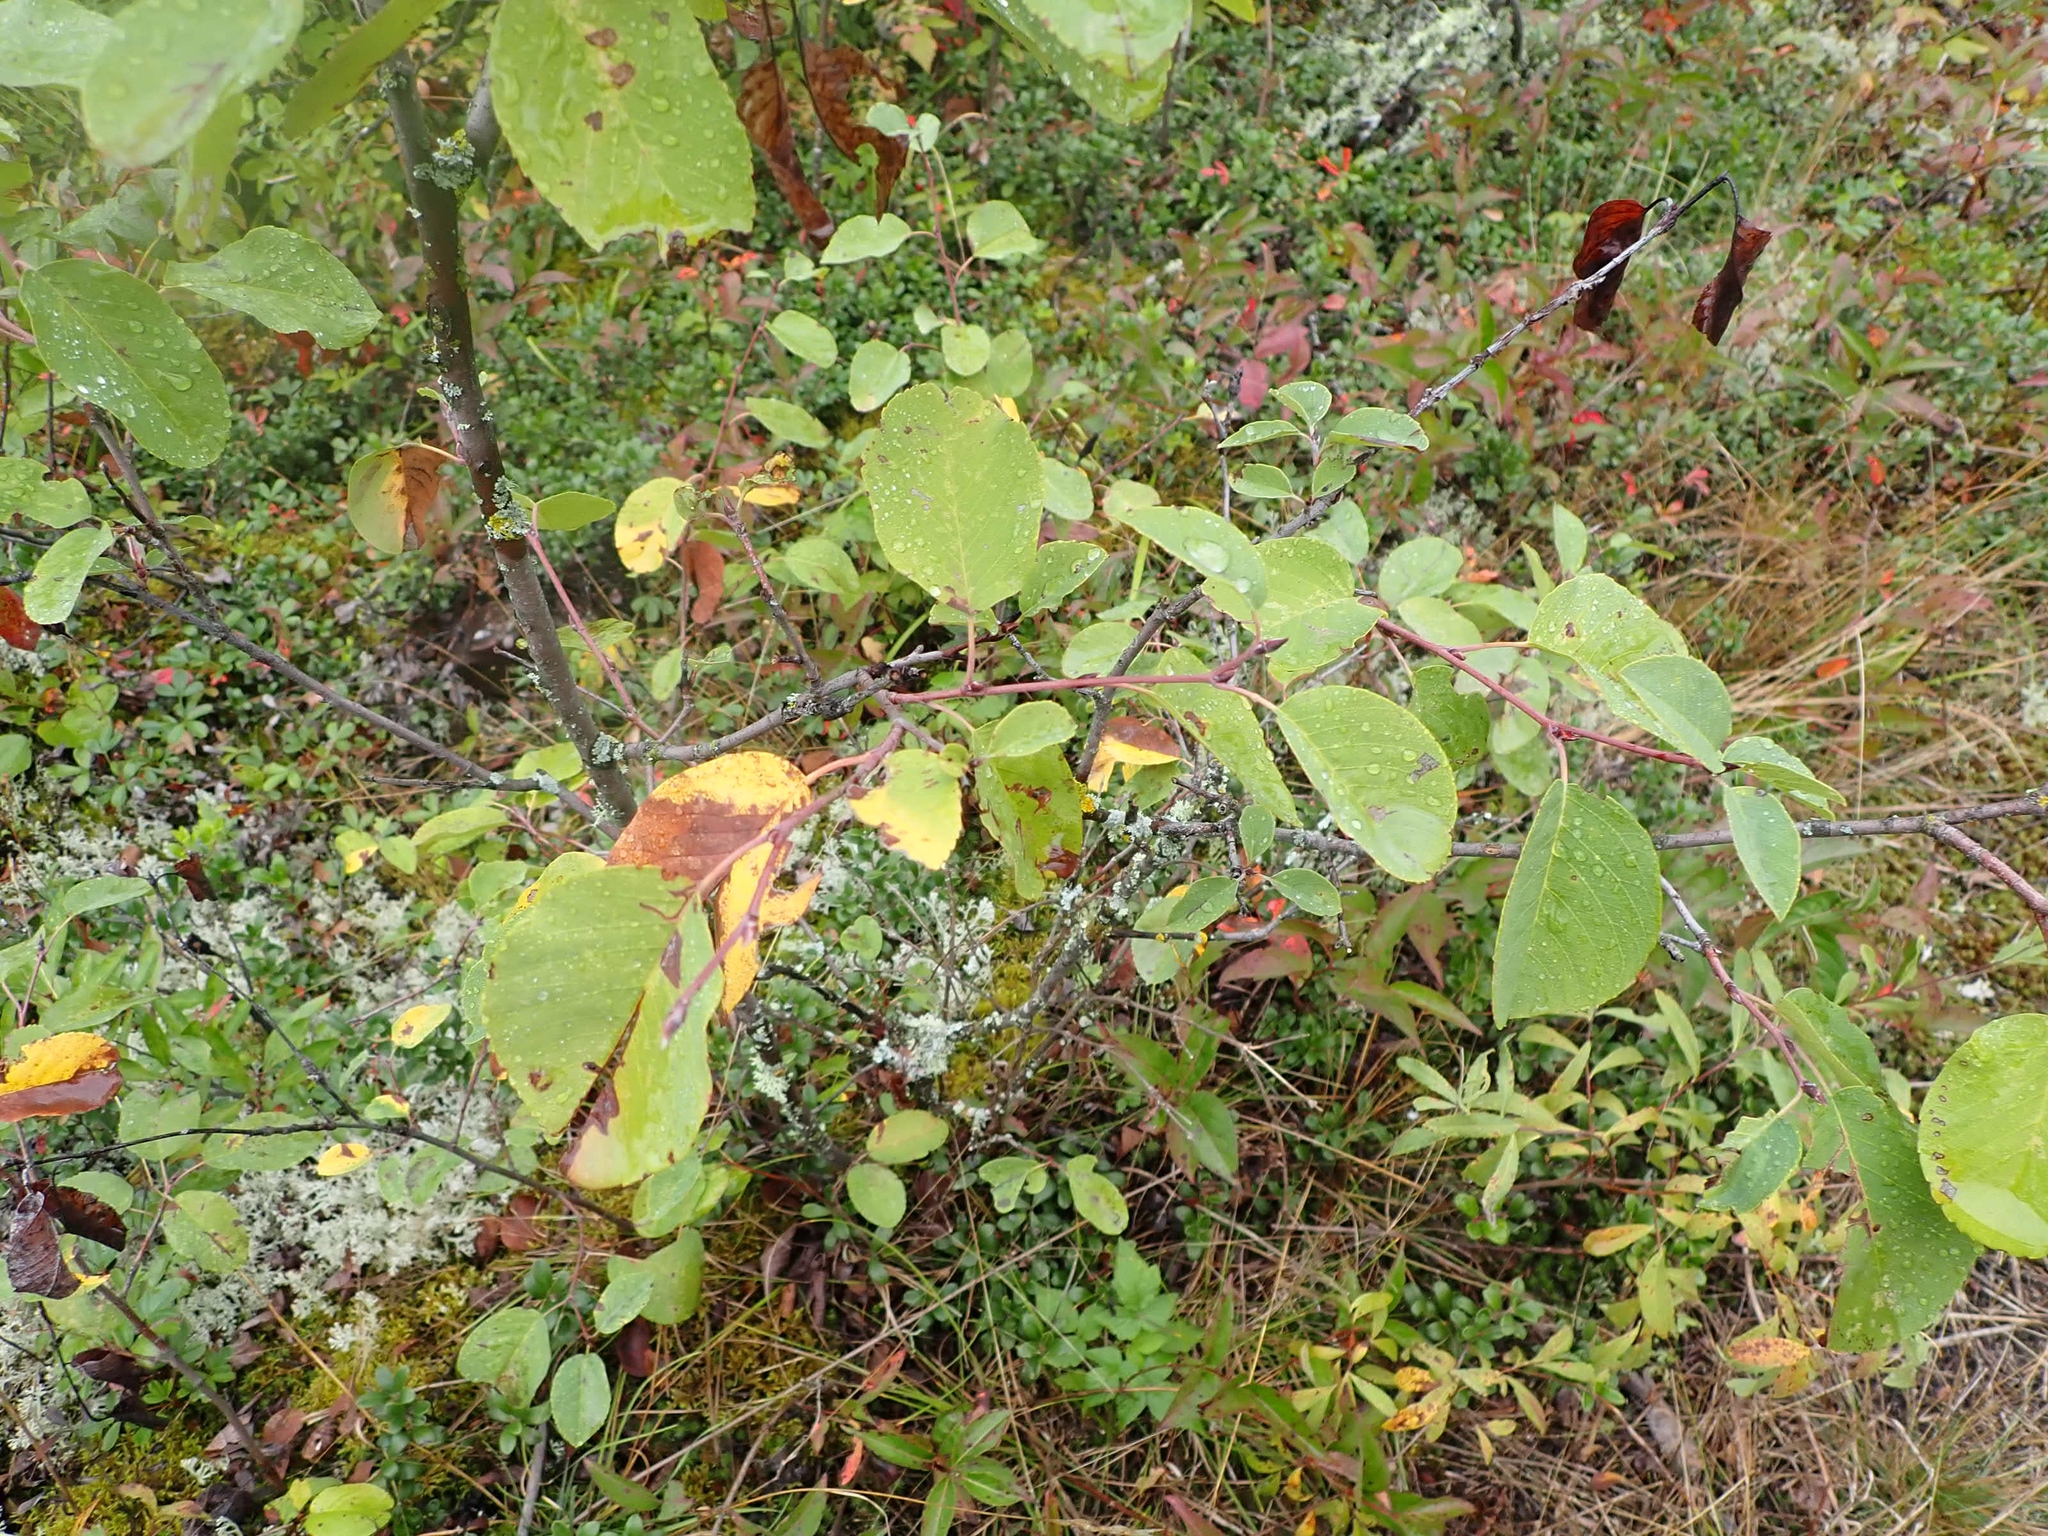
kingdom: Plantae
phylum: Tracheophyta
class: Magnoliopsida
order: Rosales
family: Rosaceae
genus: Amelanchier
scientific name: Amelanchier alnifolia
